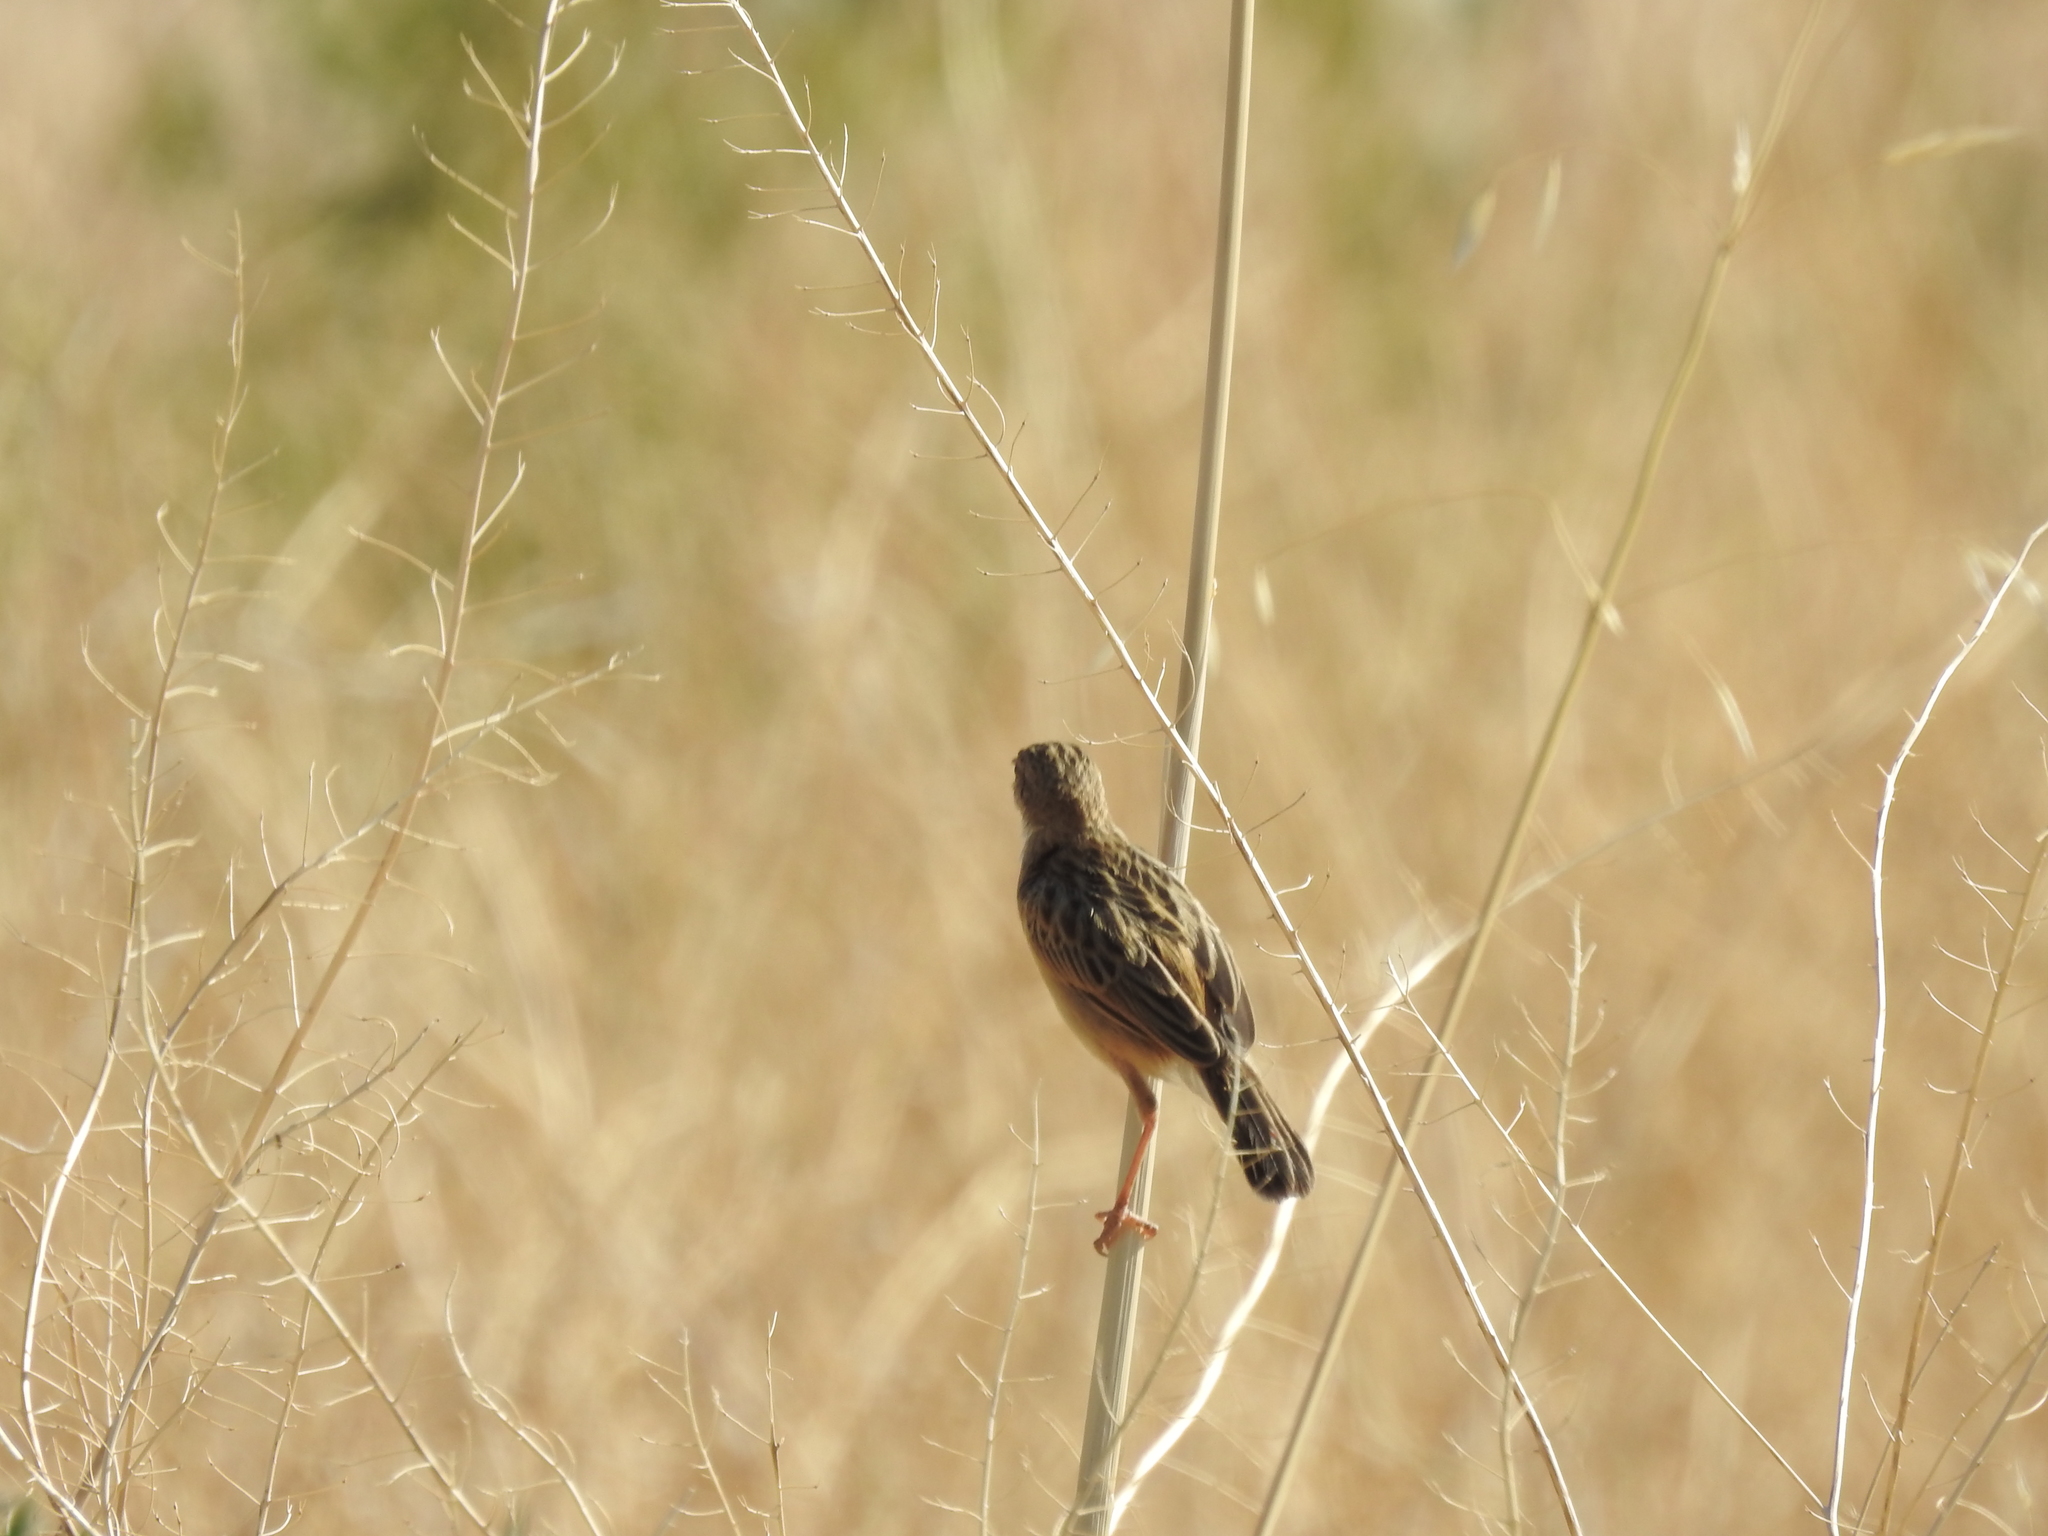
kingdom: Animalia
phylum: Chordata
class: Aves
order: Passeriformes
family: Cisticolidae
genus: Cisticola
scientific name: Cisticola juncidis
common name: Zitting cisticola
